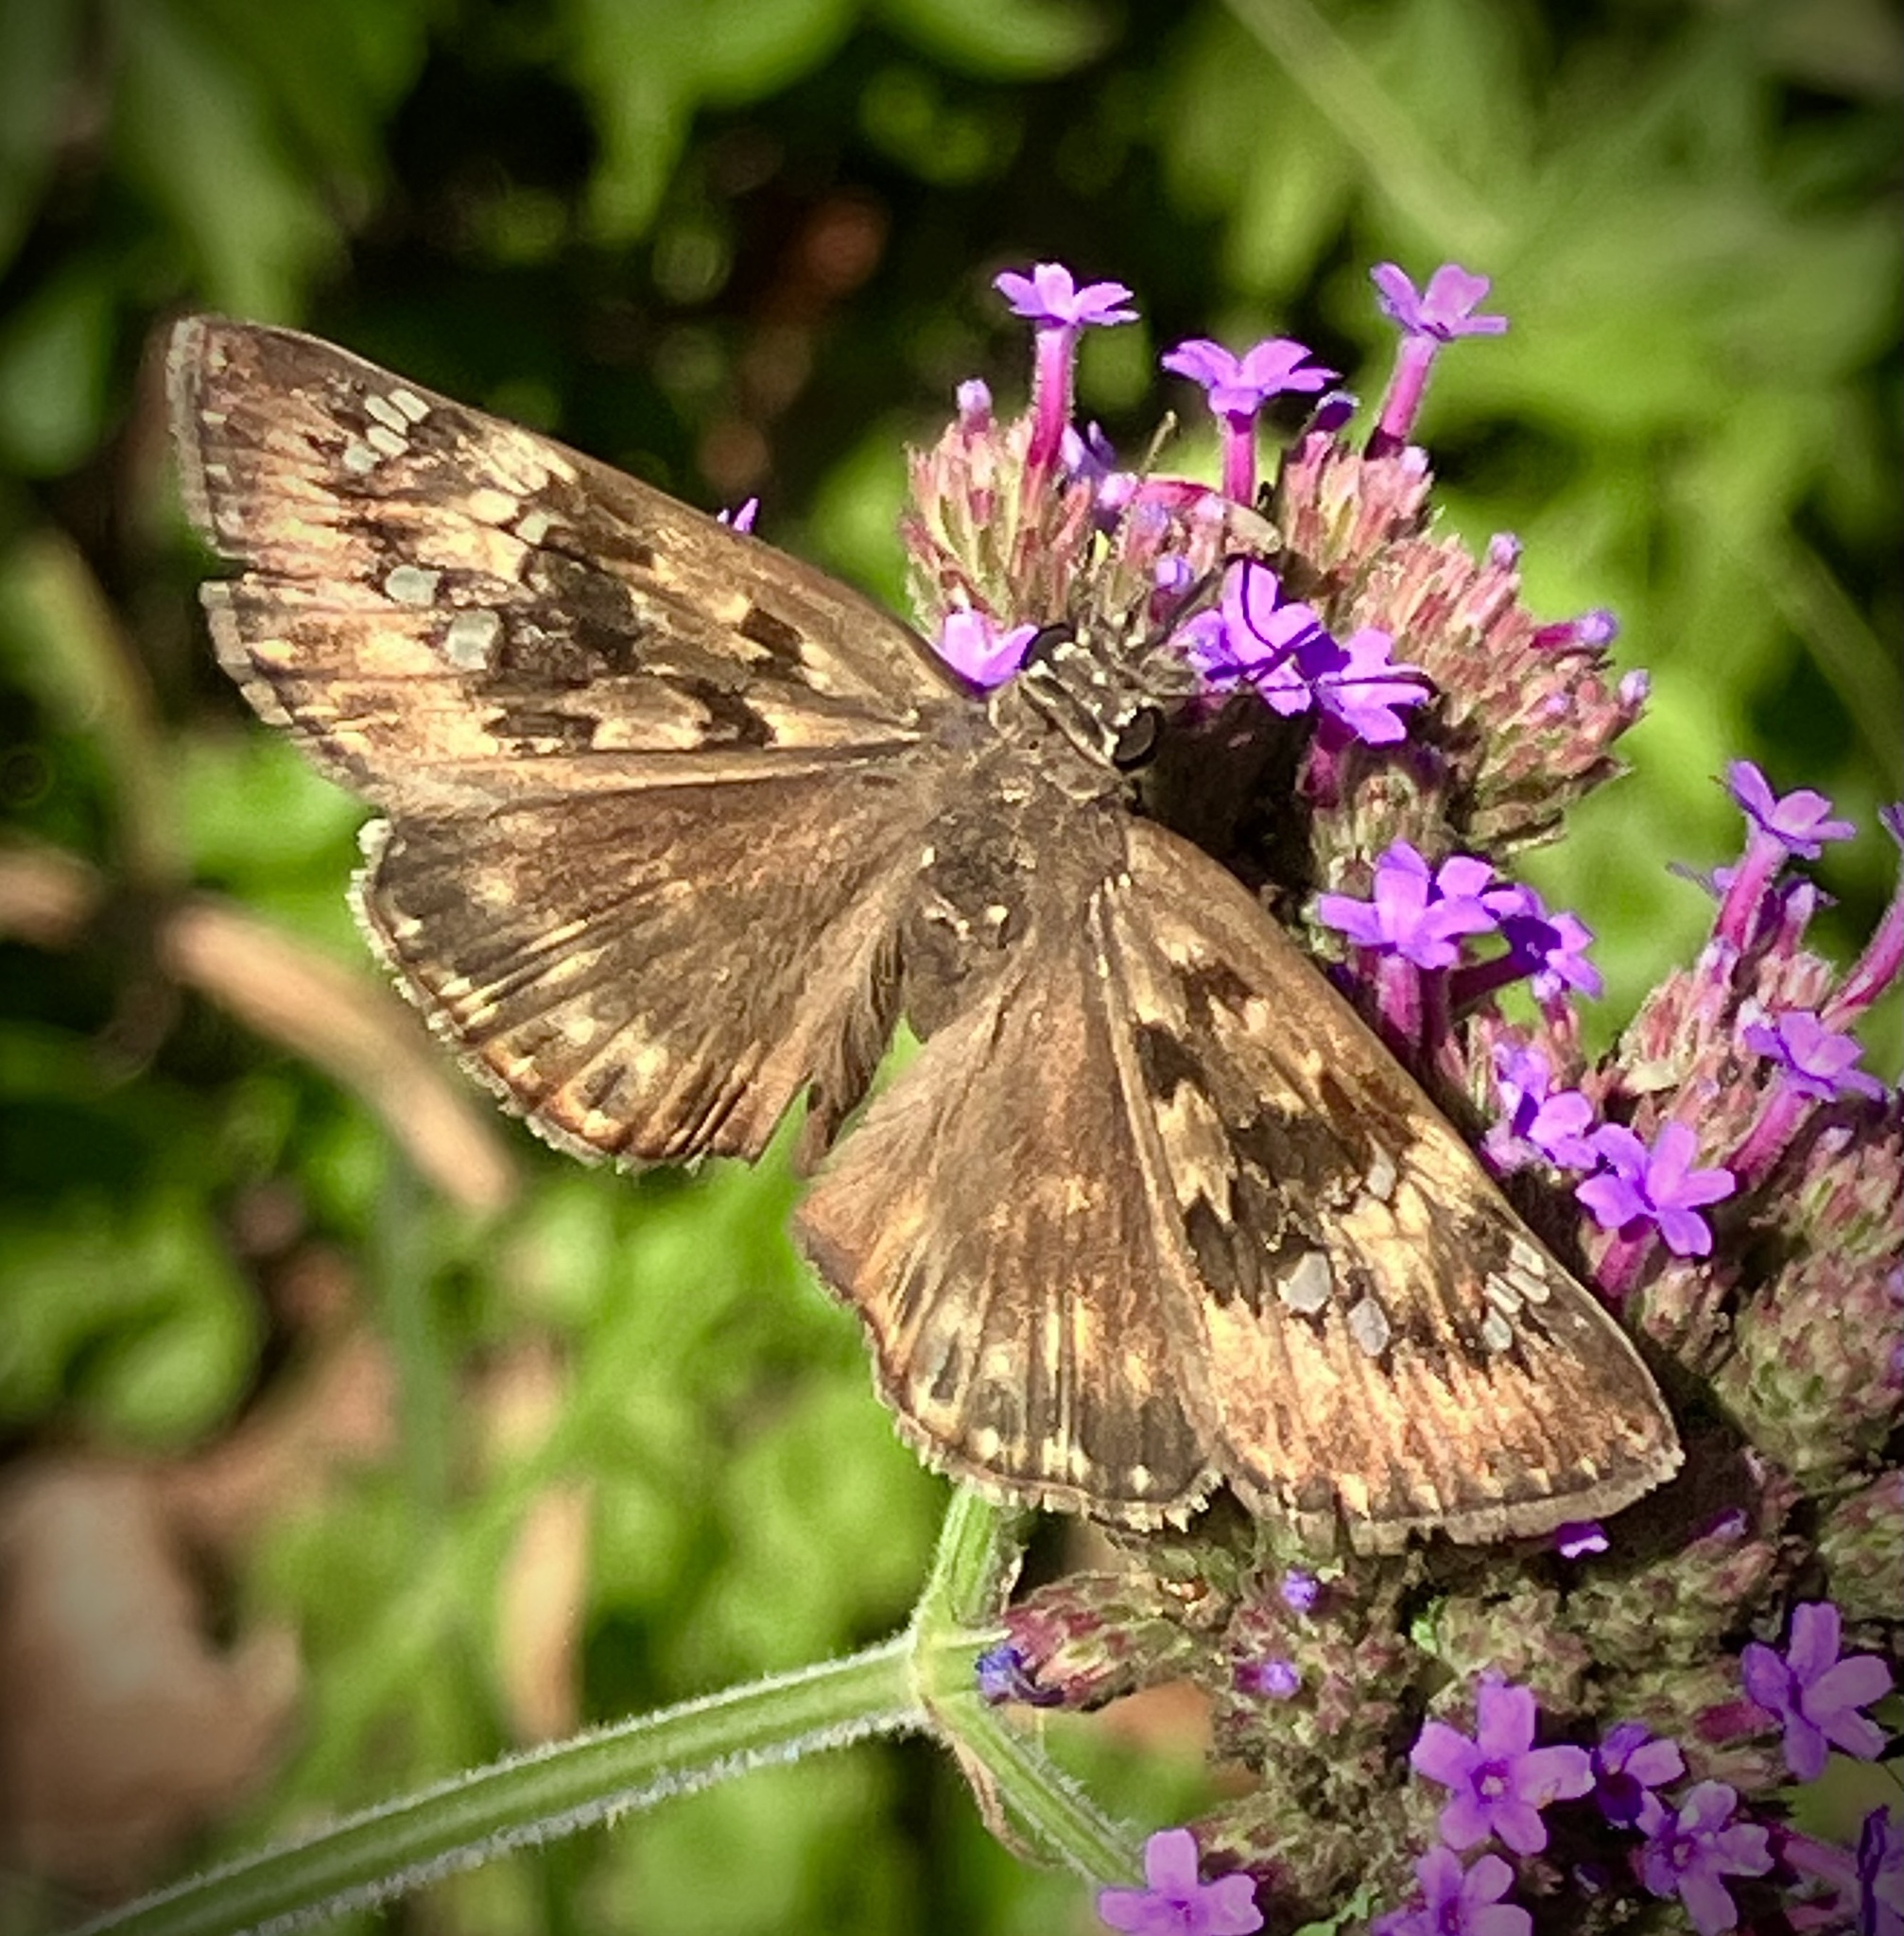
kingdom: Animalia
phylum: Arthropoda
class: Insecta
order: Lepidoptera
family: Hesperiidae
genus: Erynnis
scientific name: Erynnis horatius
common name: Horace's duskywing
